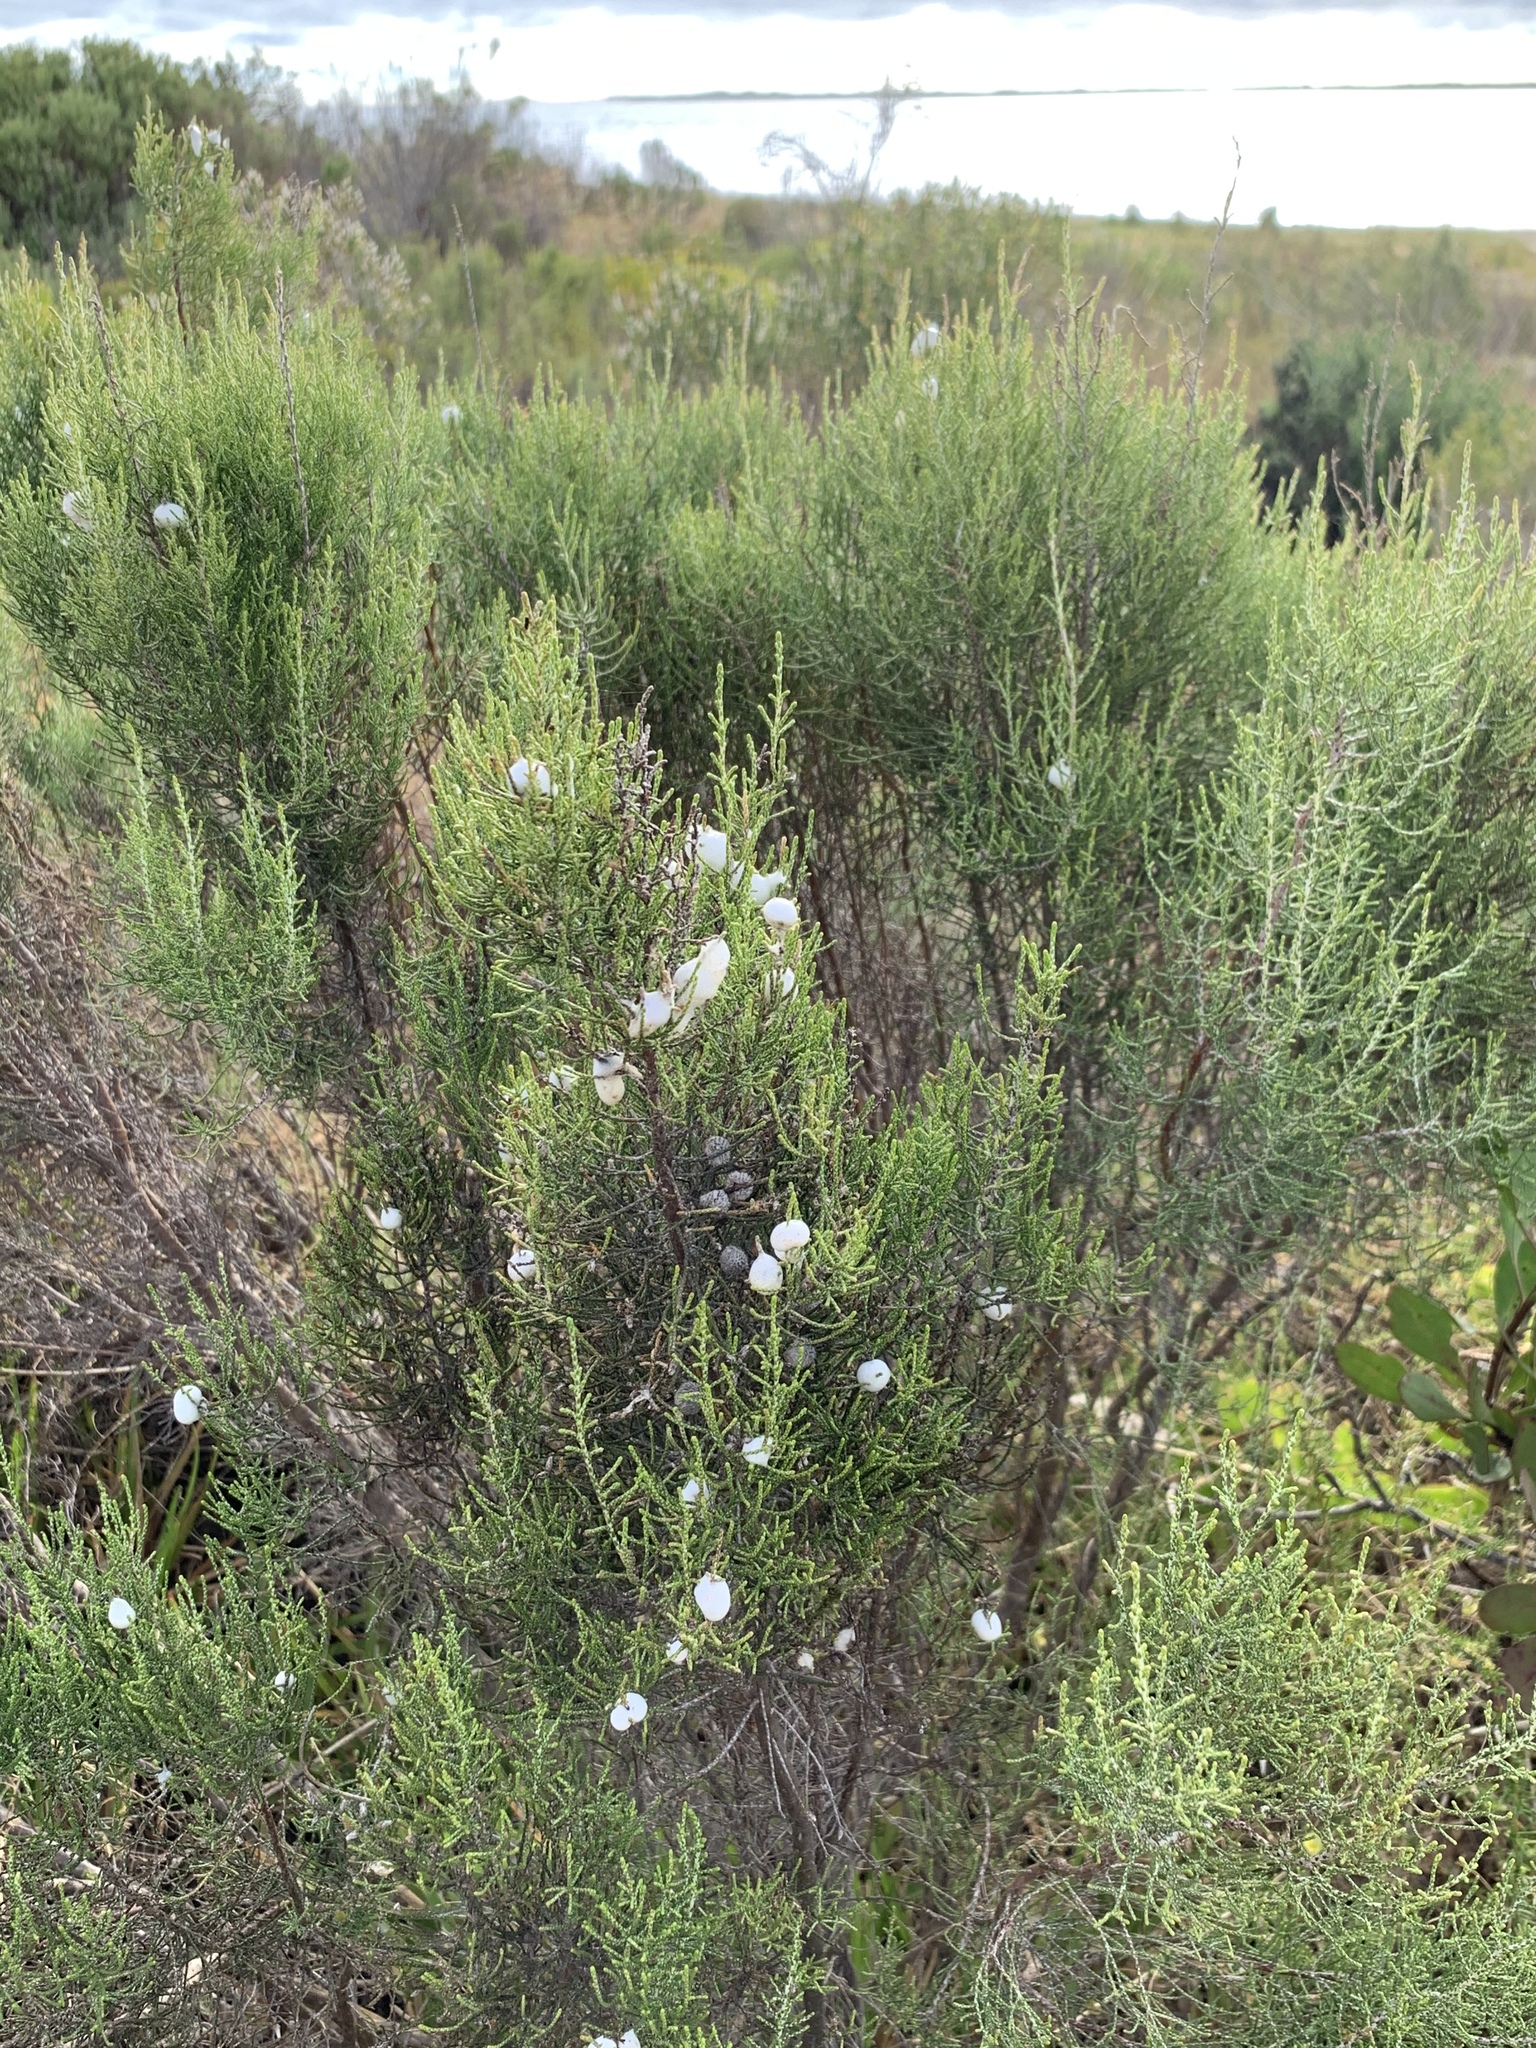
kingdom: Plantae
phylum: Tracheophyta
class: Magnoliopsida
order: Asterales
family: Asteraceae
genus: Dicerothamnus
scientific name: Dicerothamnus rhinocerotis
